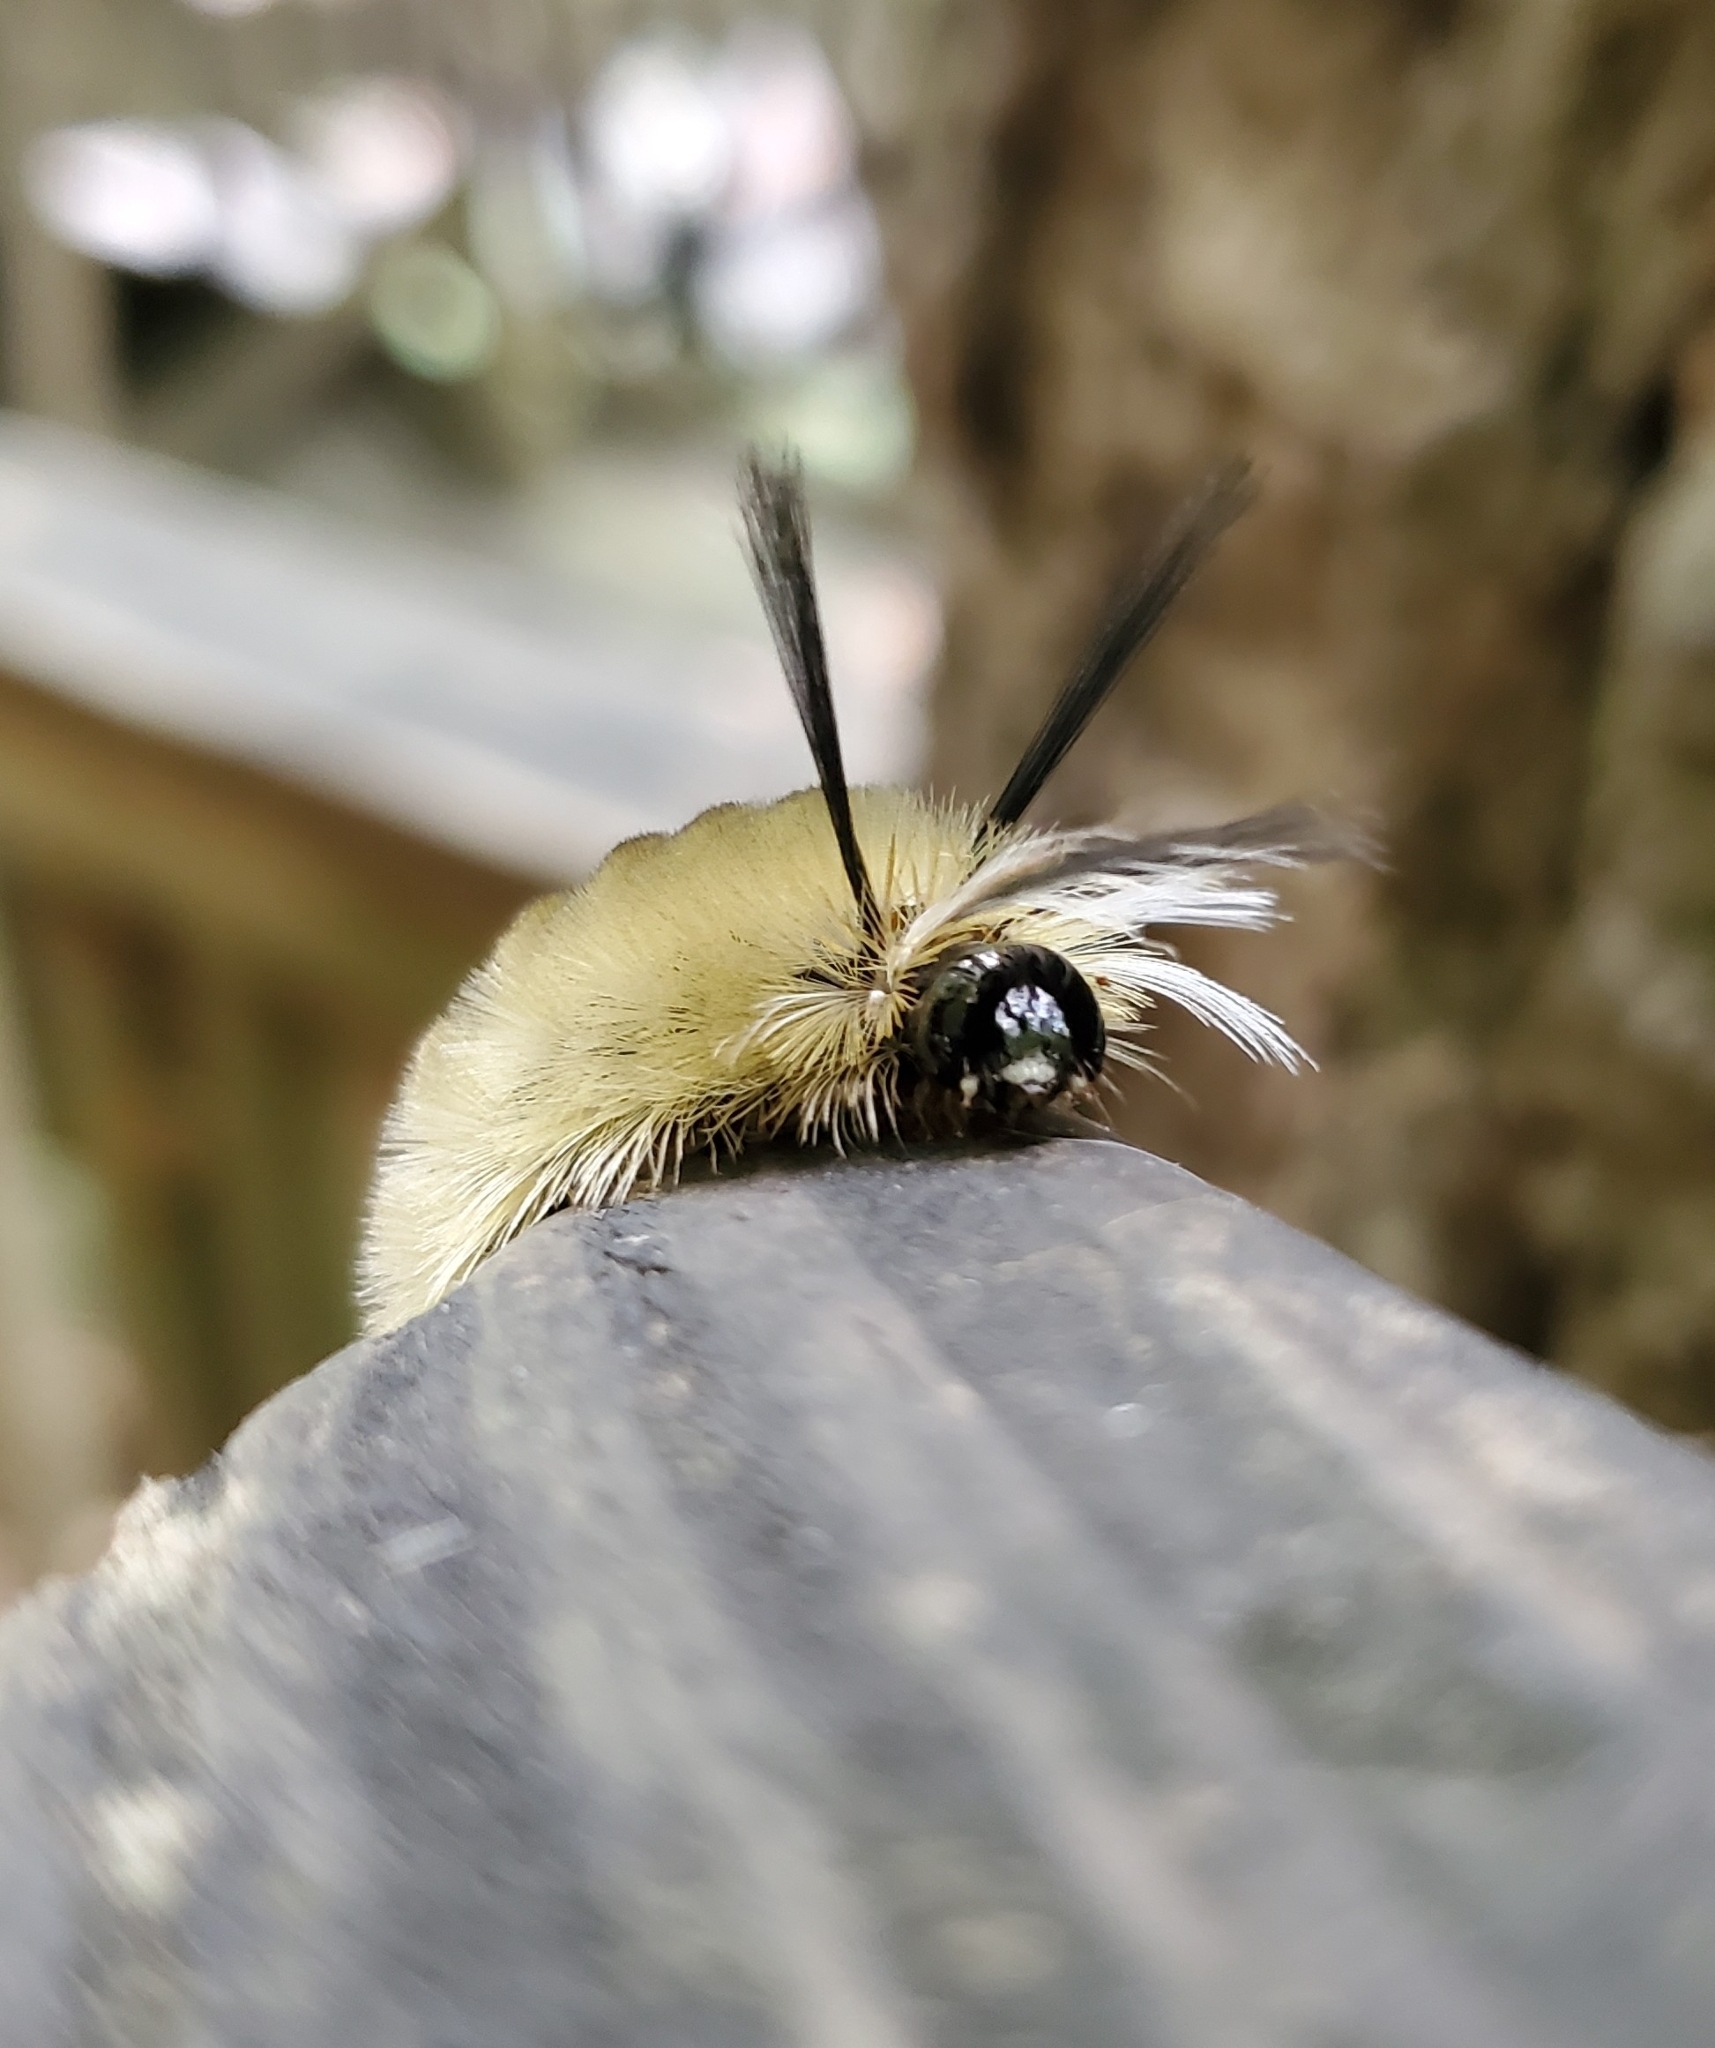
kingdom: Animalia
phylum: Arthropoda
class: Insecta
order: Lepidoptera
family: Erebidae
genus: Halysidota
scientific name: Halysidota tessellaris
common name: Banded tussock moth
